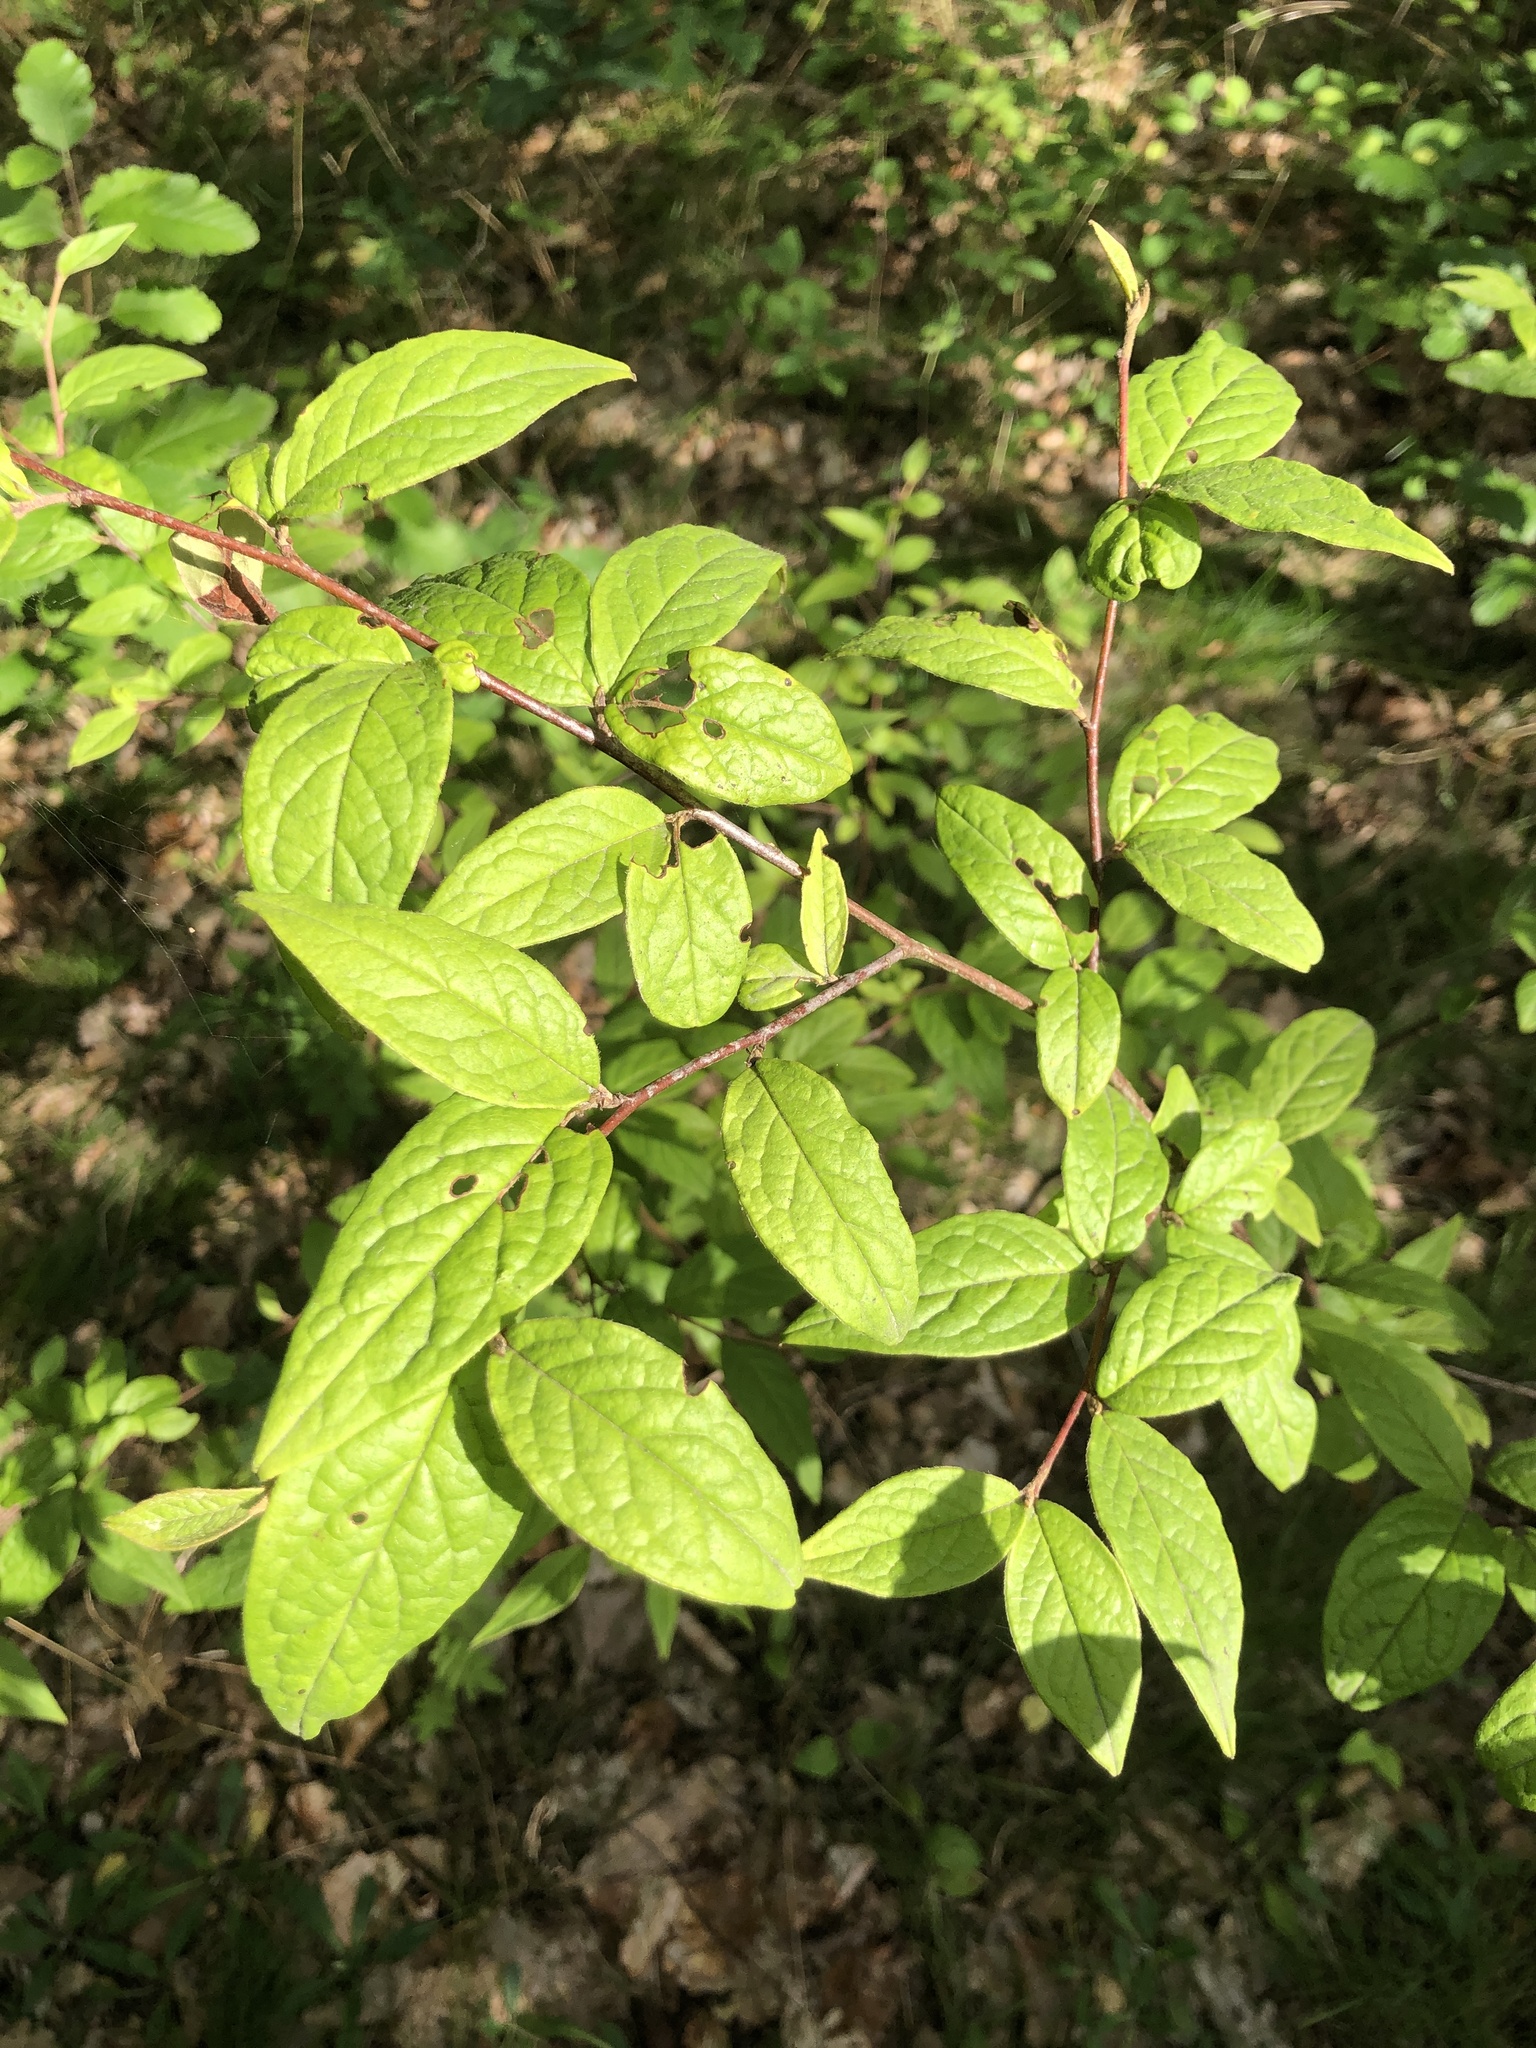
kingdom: Plantae
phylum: Tracheophyta
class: Magnoliopsida
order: Rosales
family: Rosaceae
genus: Cotoneaster
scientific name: Cotoneaster bullatus
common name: Hollyberry cotoneaster
